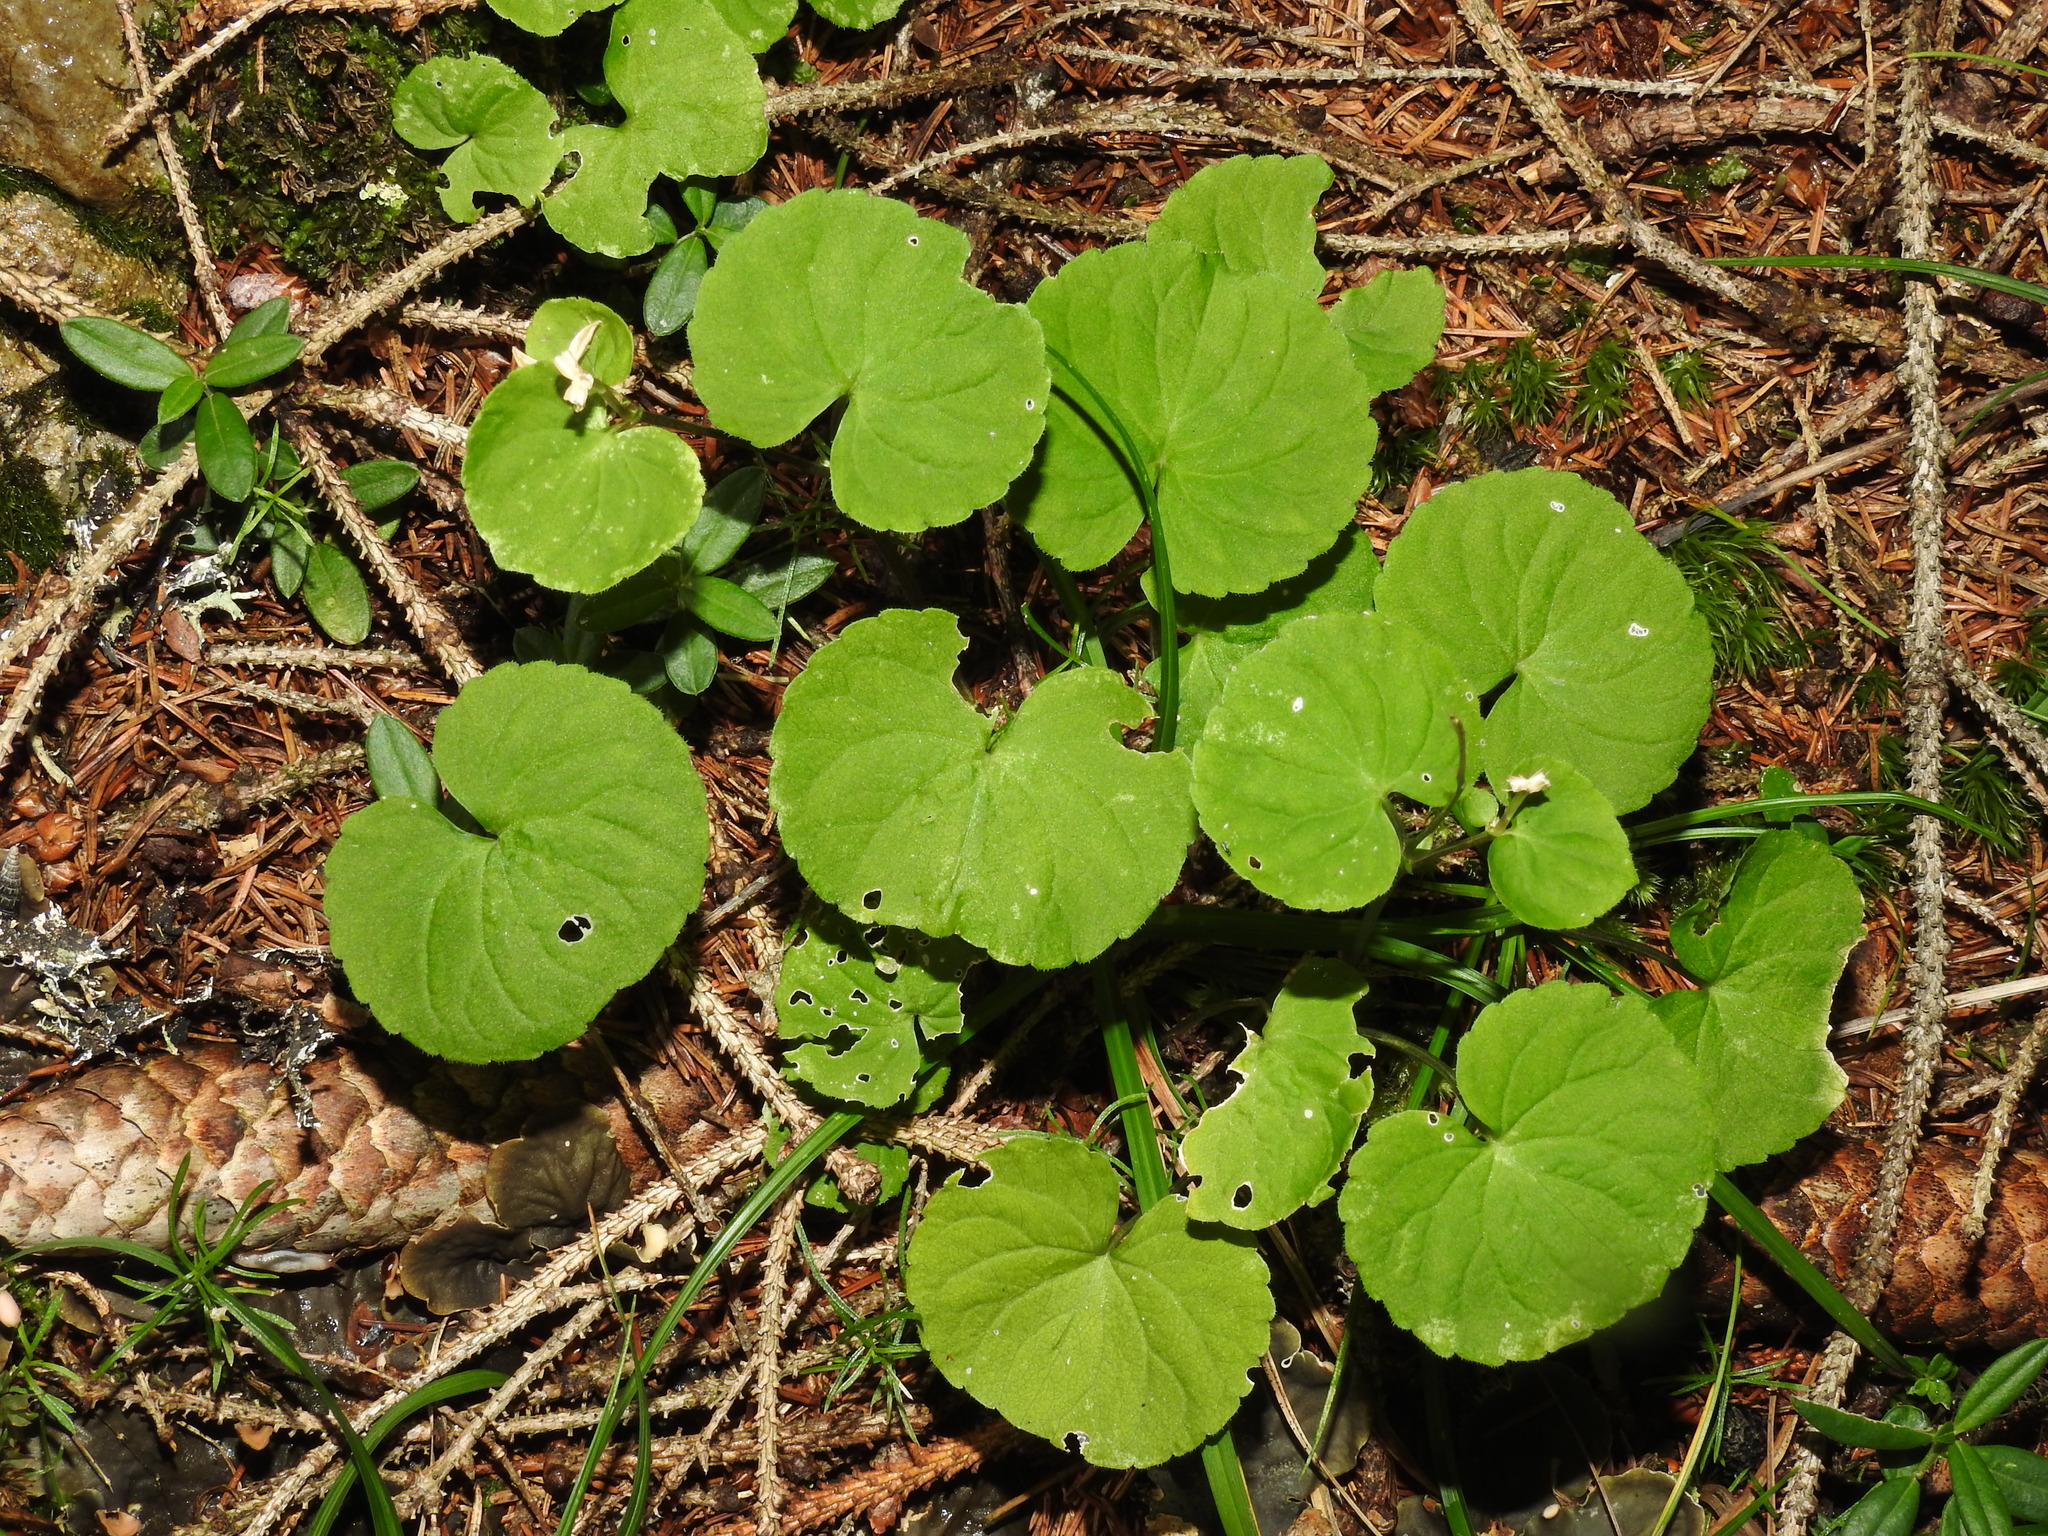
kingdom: Plantae
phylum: Tracheophyta
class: Magnoliopsida
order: Malpighiales
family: Violaceae
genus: Viola
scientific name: Viola biflora
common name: Alpine yellow violet
